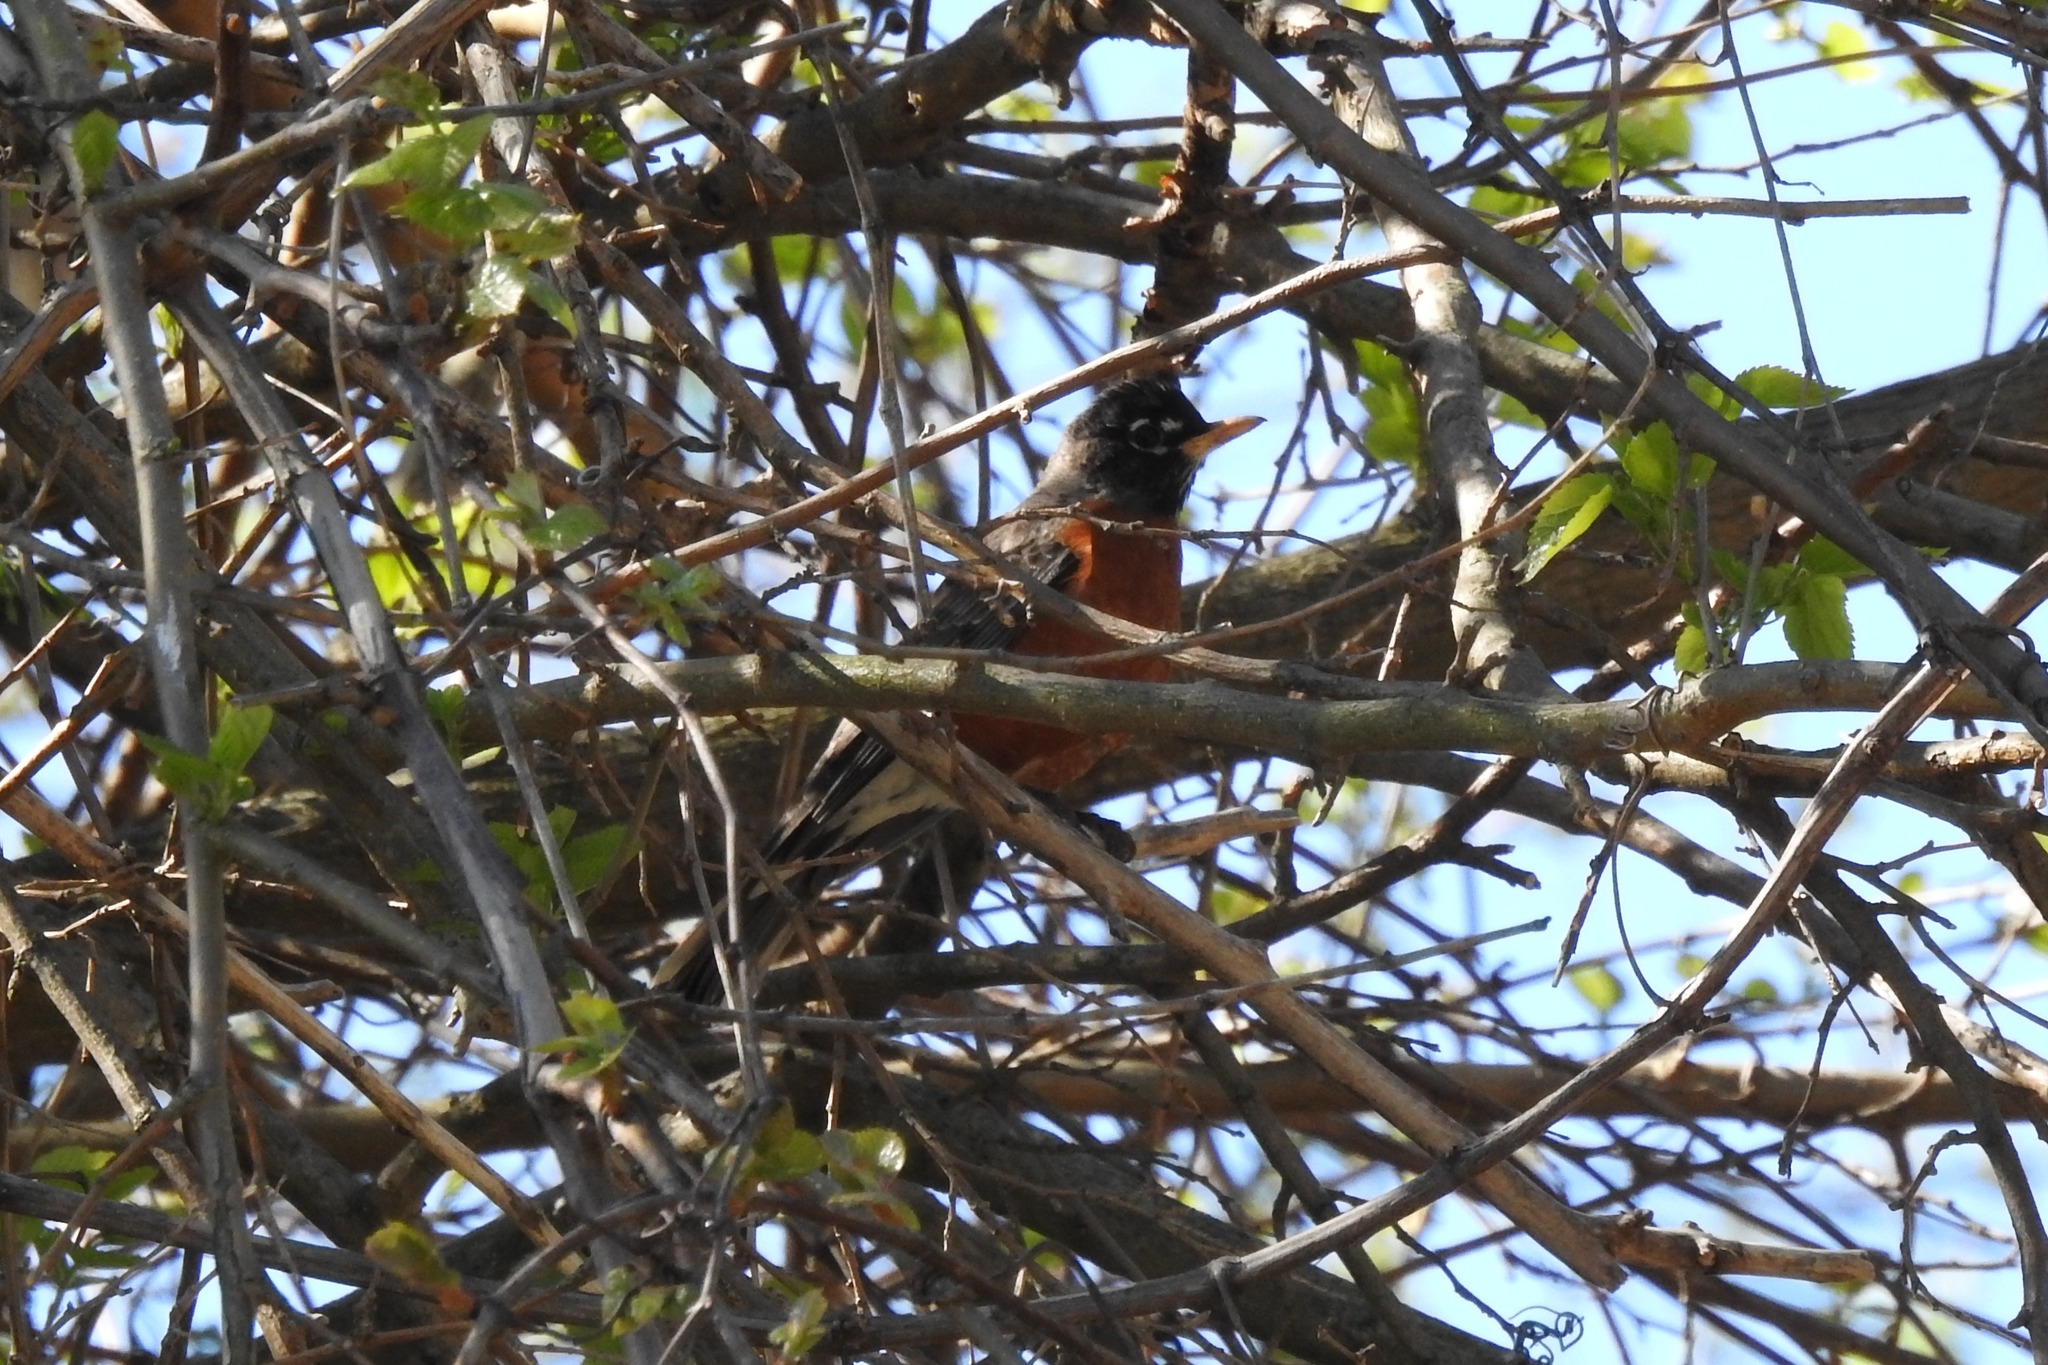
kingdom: Animalia
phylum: Chordata
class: Aves
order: Passeriformes
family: Turdidae
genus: Turdus
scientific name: Turdus migratorius
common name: American robin
